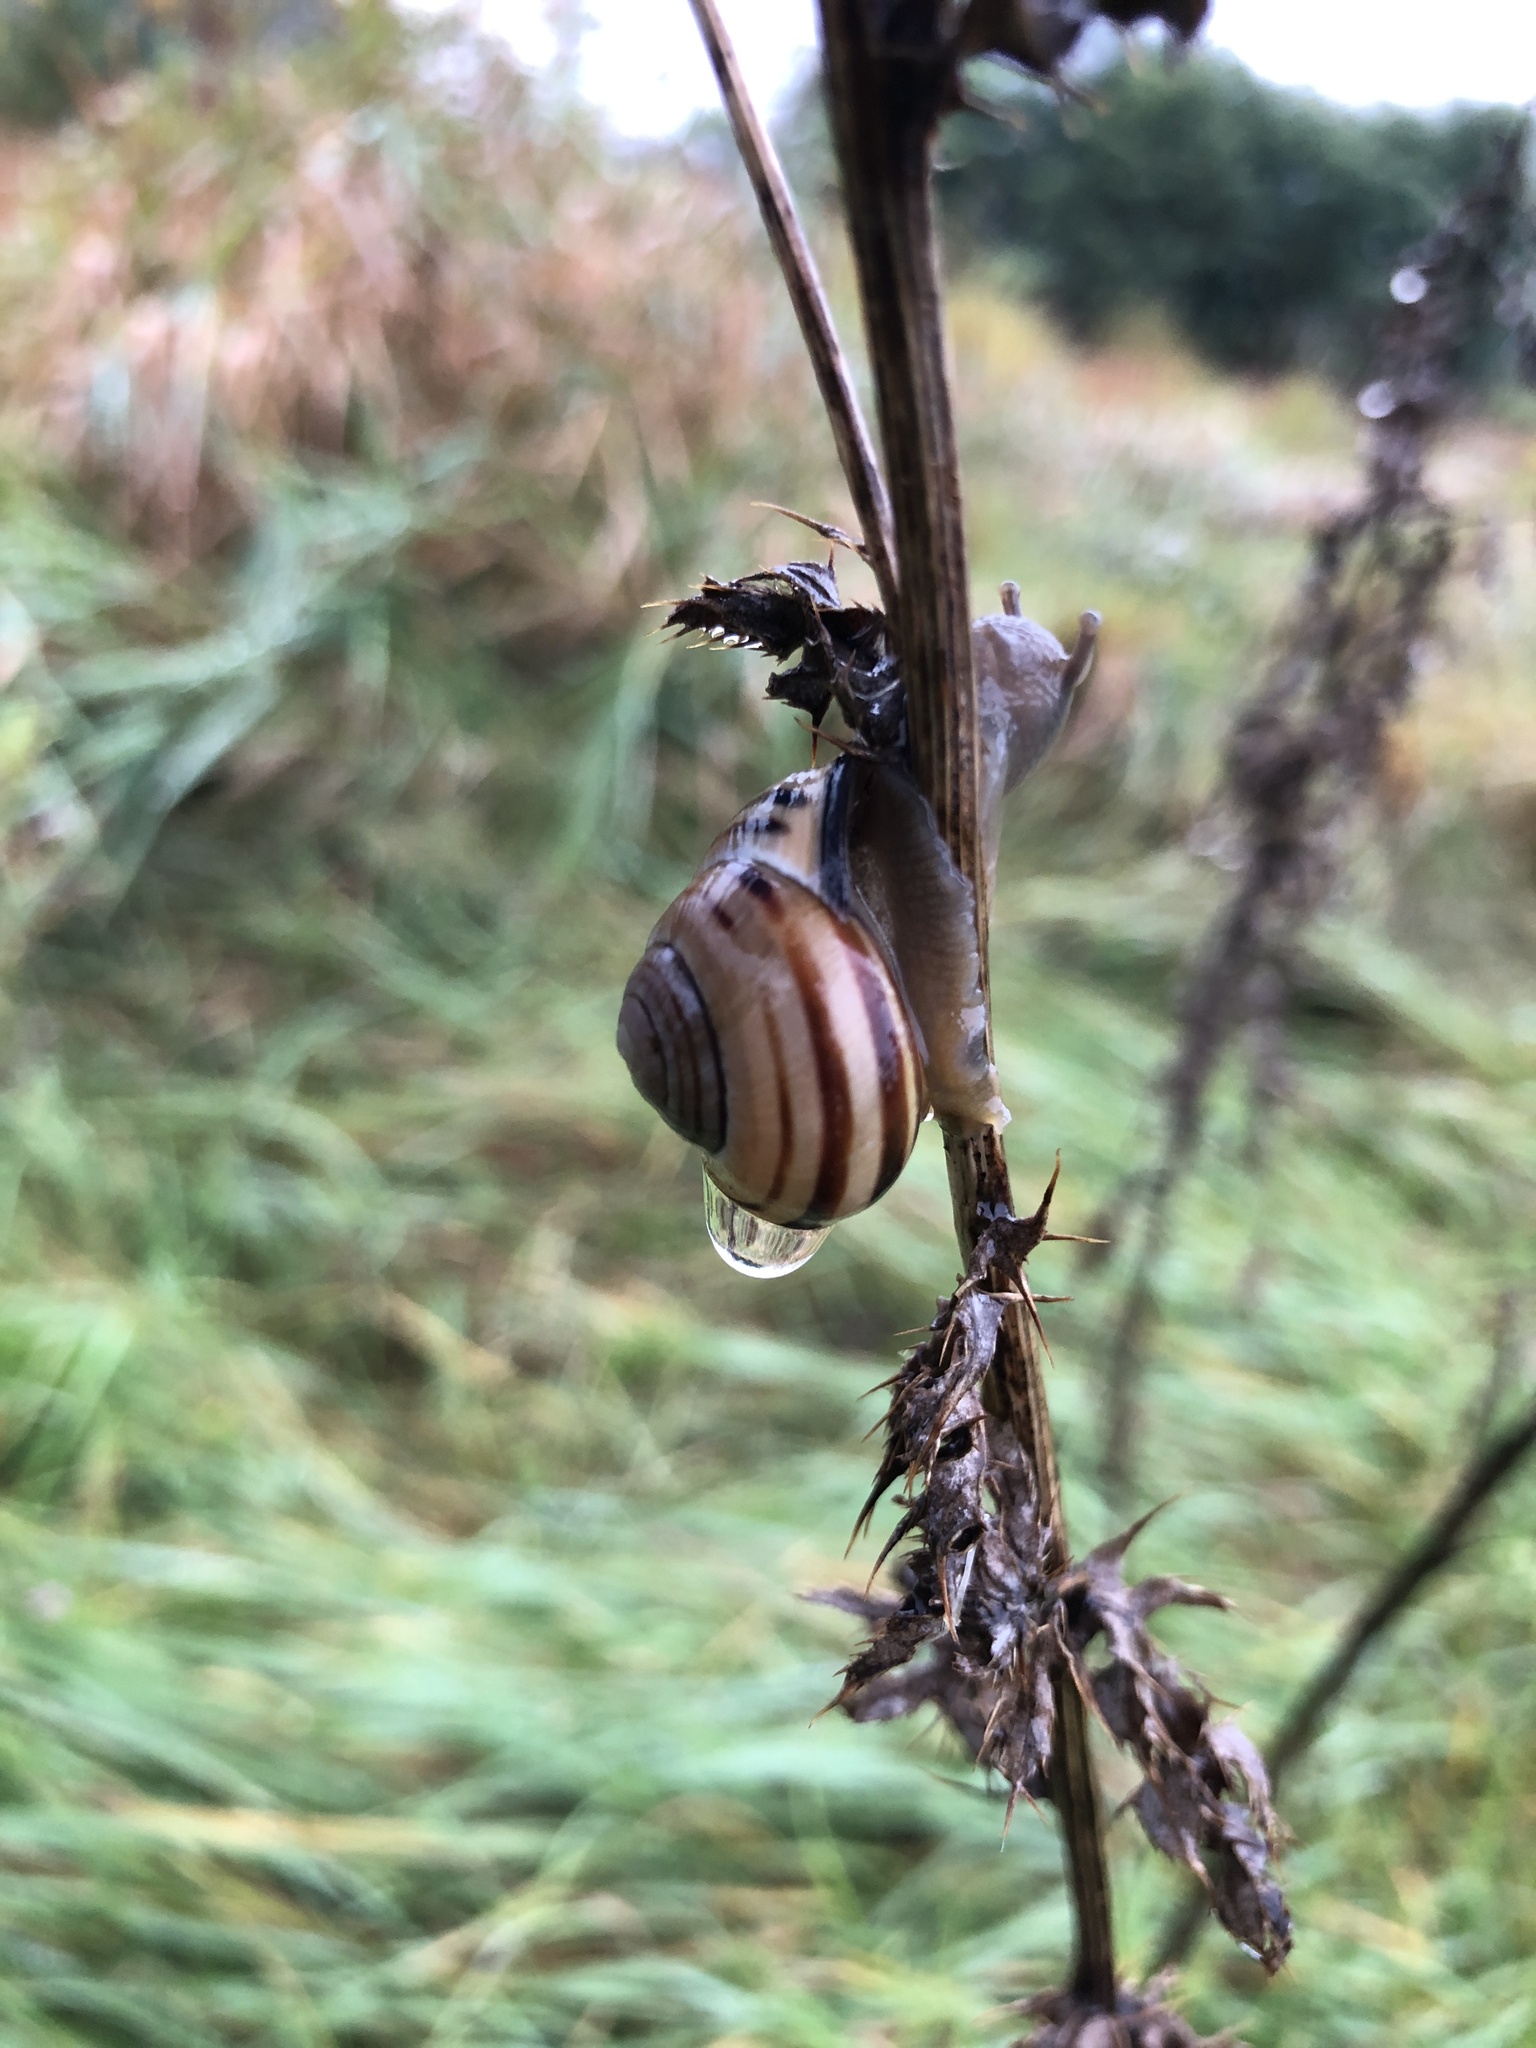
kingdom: Animalia
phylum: Mollusca
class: Gastropoda
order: Stylommatophora
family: Helicidae
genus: Cepaea
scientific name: Cepaea nemoralis
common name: Grovesnail
